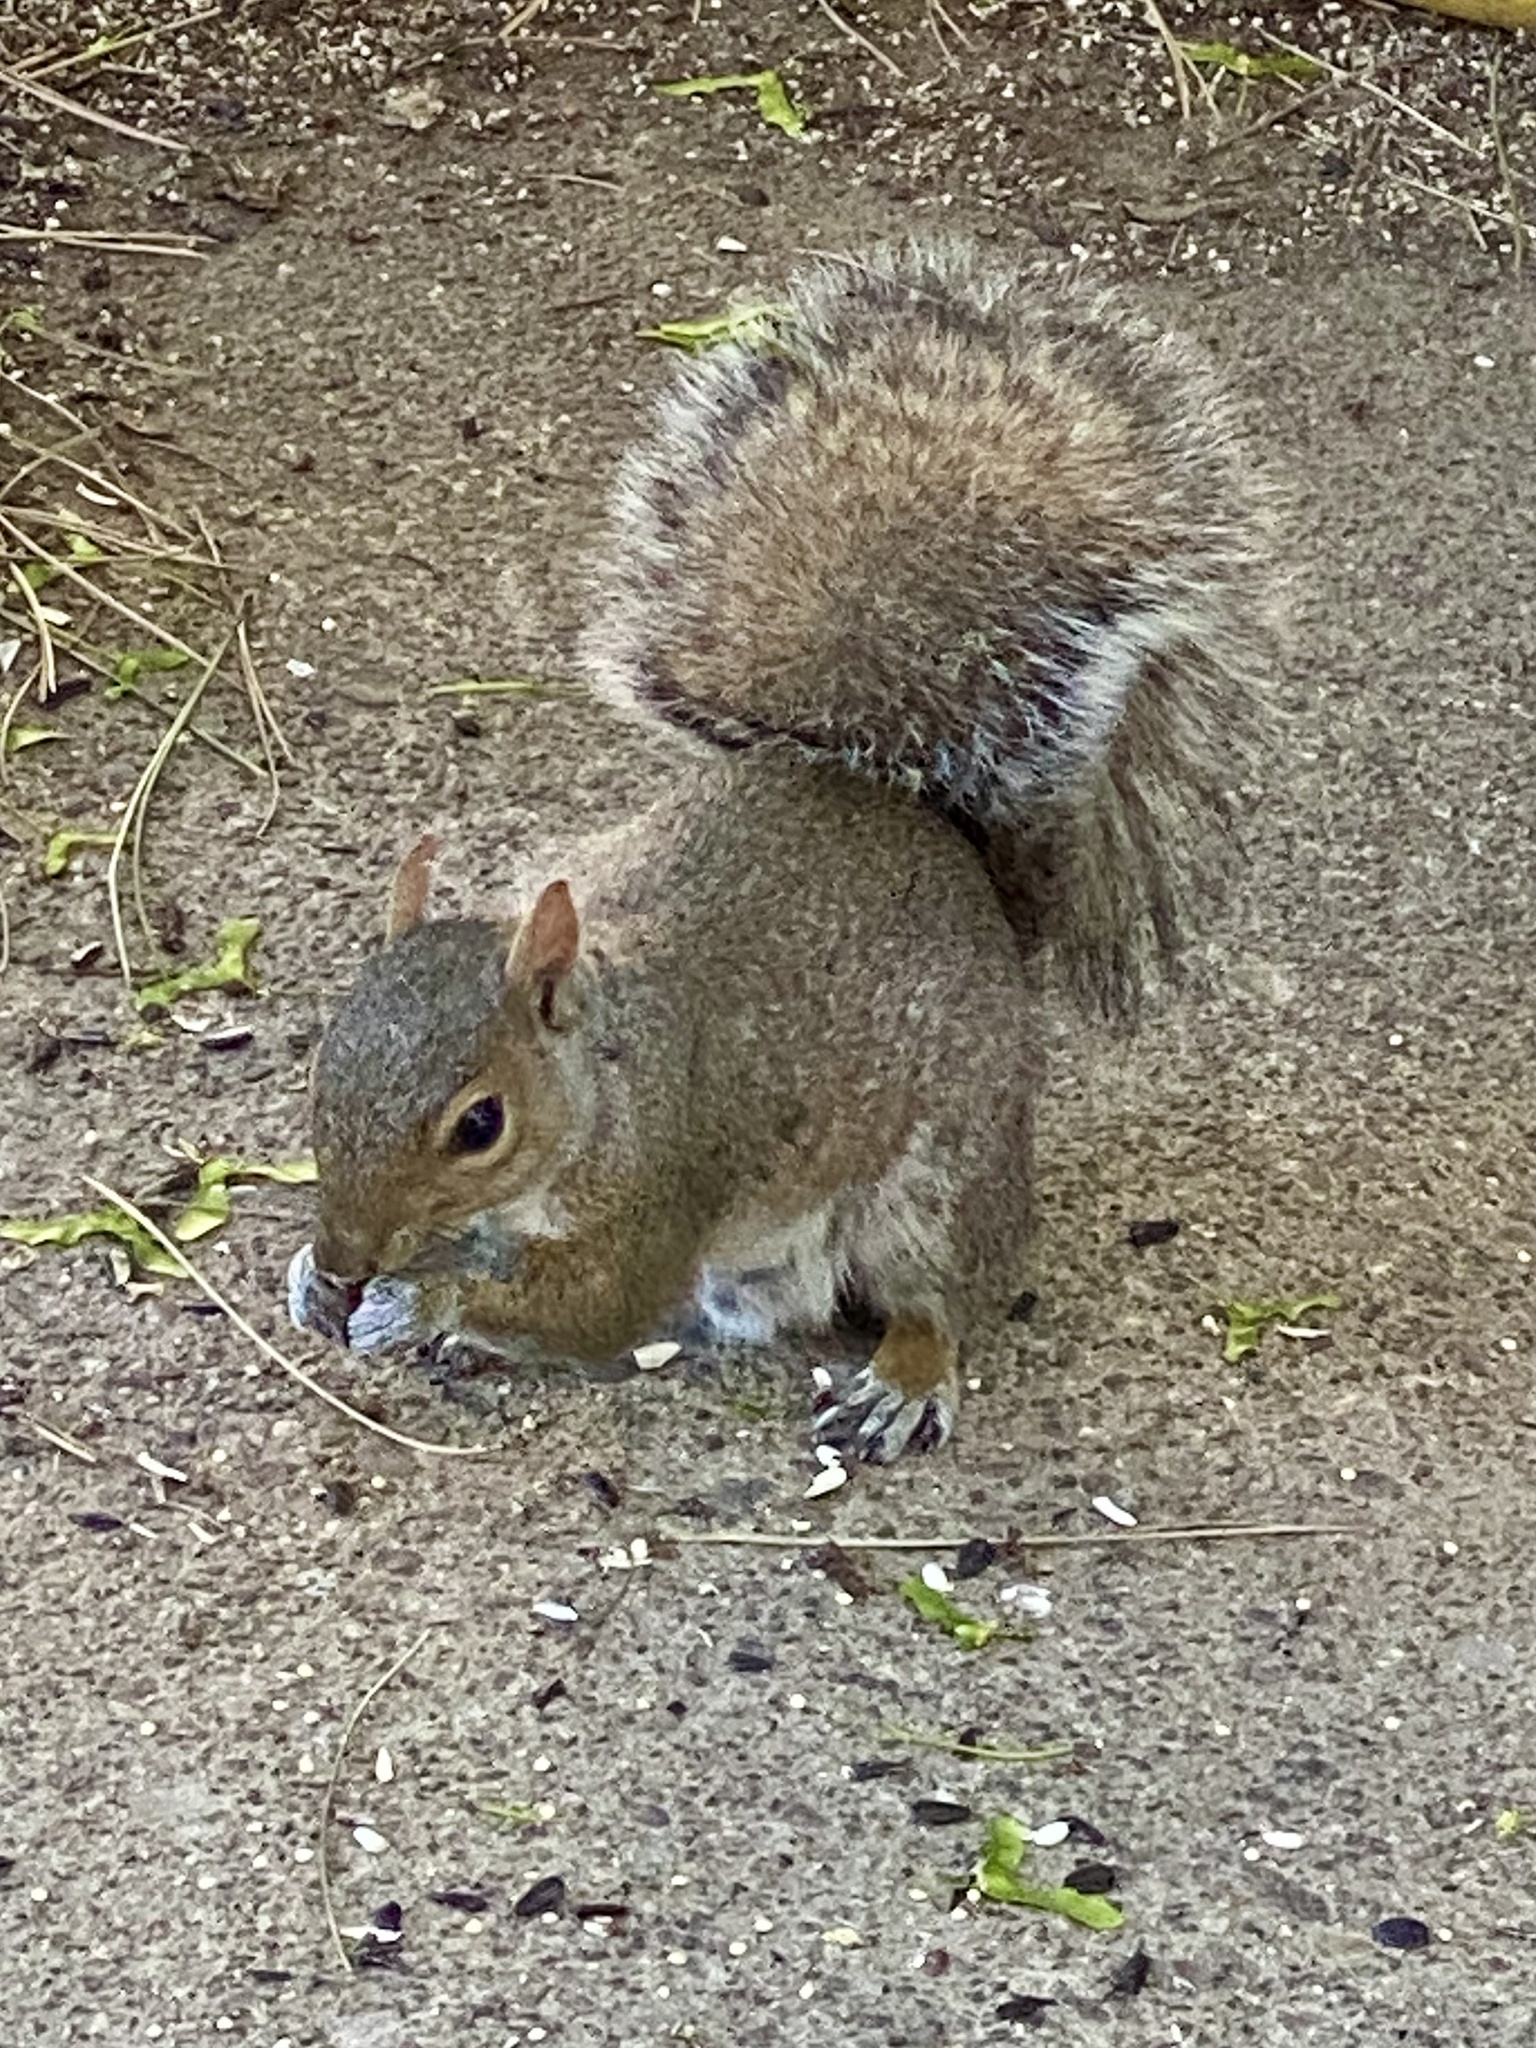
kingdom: Animalia
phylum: Chordata
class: Mammalia
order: Rodentia
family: Sciuridae
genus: Sciurus
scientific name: Sciurus carolinensis
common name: Eastern gray squirrel
